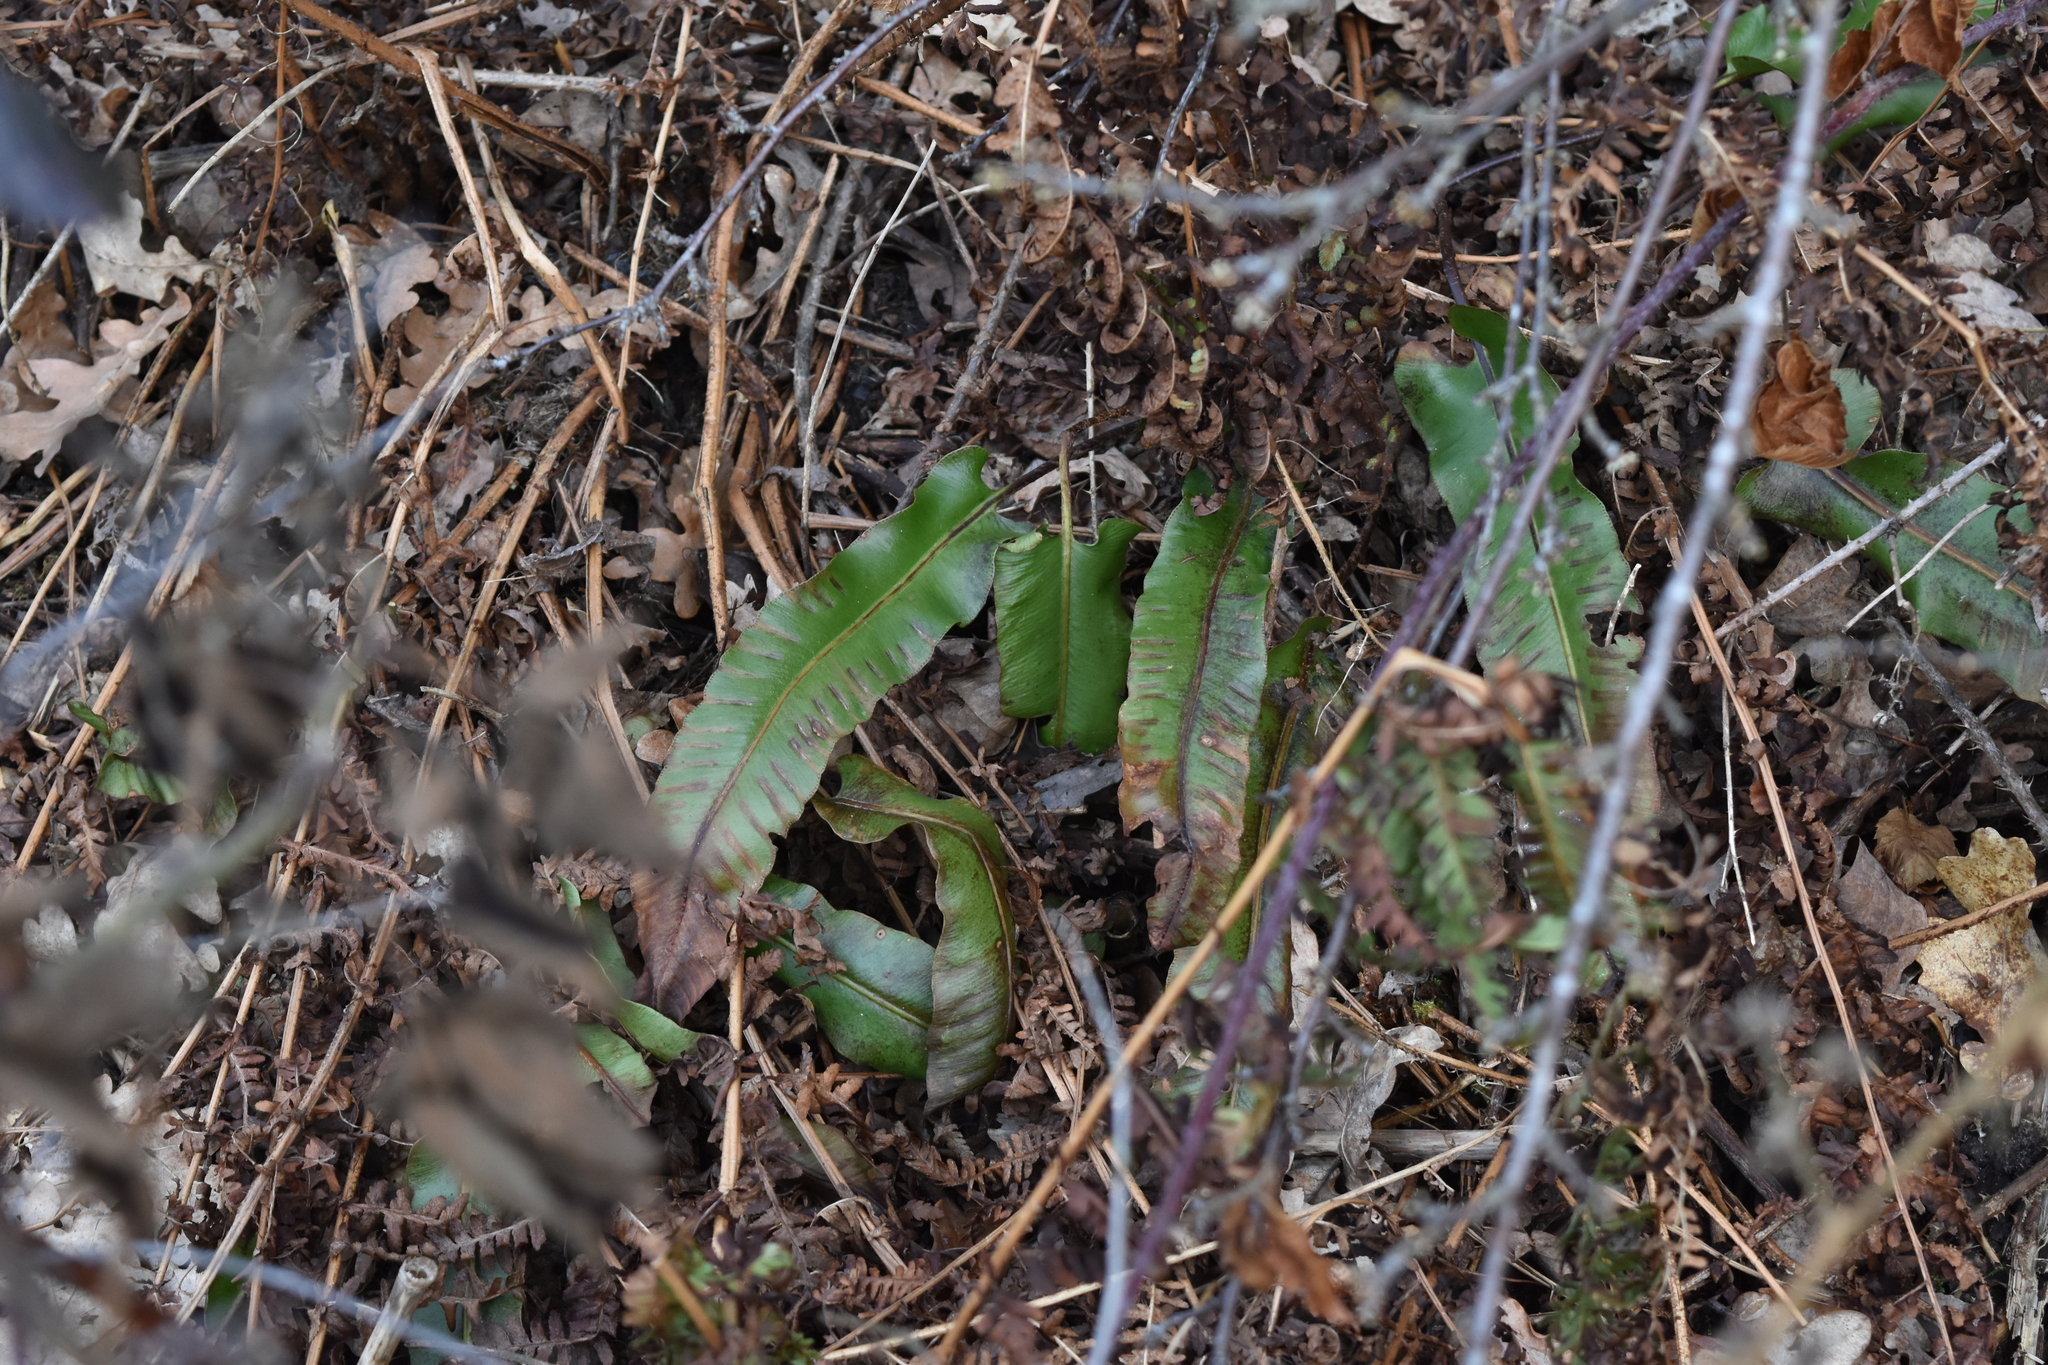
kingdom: Plantae
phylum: Tracheophyta
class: Polypodiopsida
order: Polypodiales
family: Aspleniaceae
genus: Asplenium
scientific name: Asplenium scolopendrium
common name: Hart's-tongue fern
